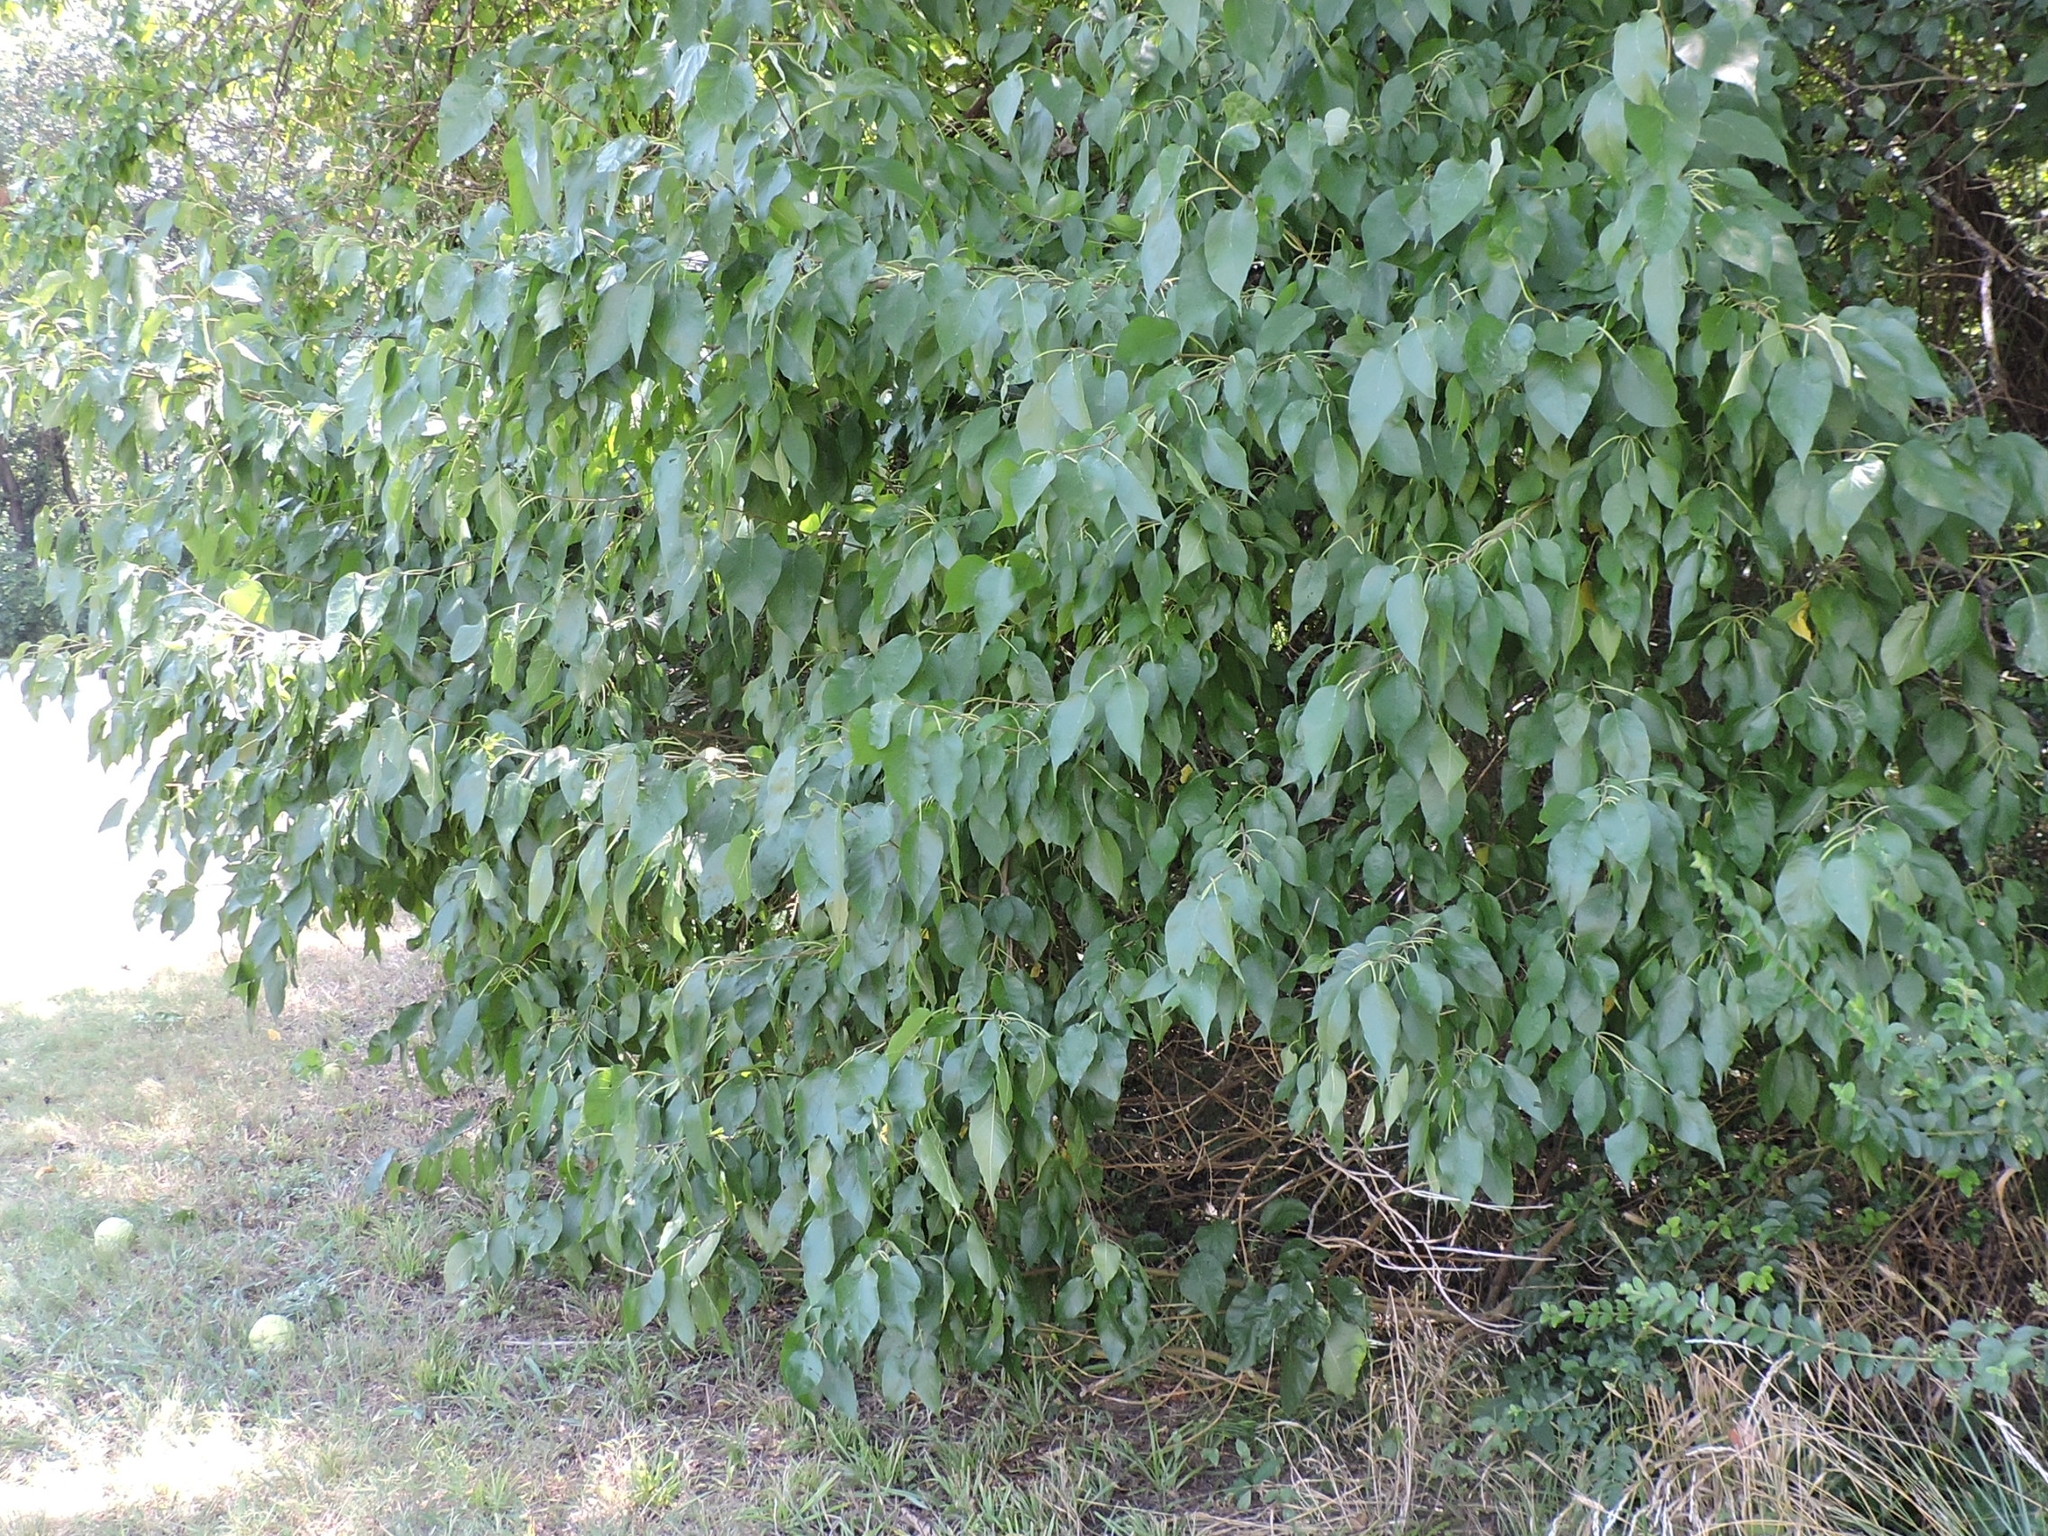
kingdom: Plantae
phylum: Tracheophyta
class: Magnoliopsida
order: Rosales
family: Moraceae
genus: Maclura
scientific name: Maclura pomifera
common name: Osage-orange
